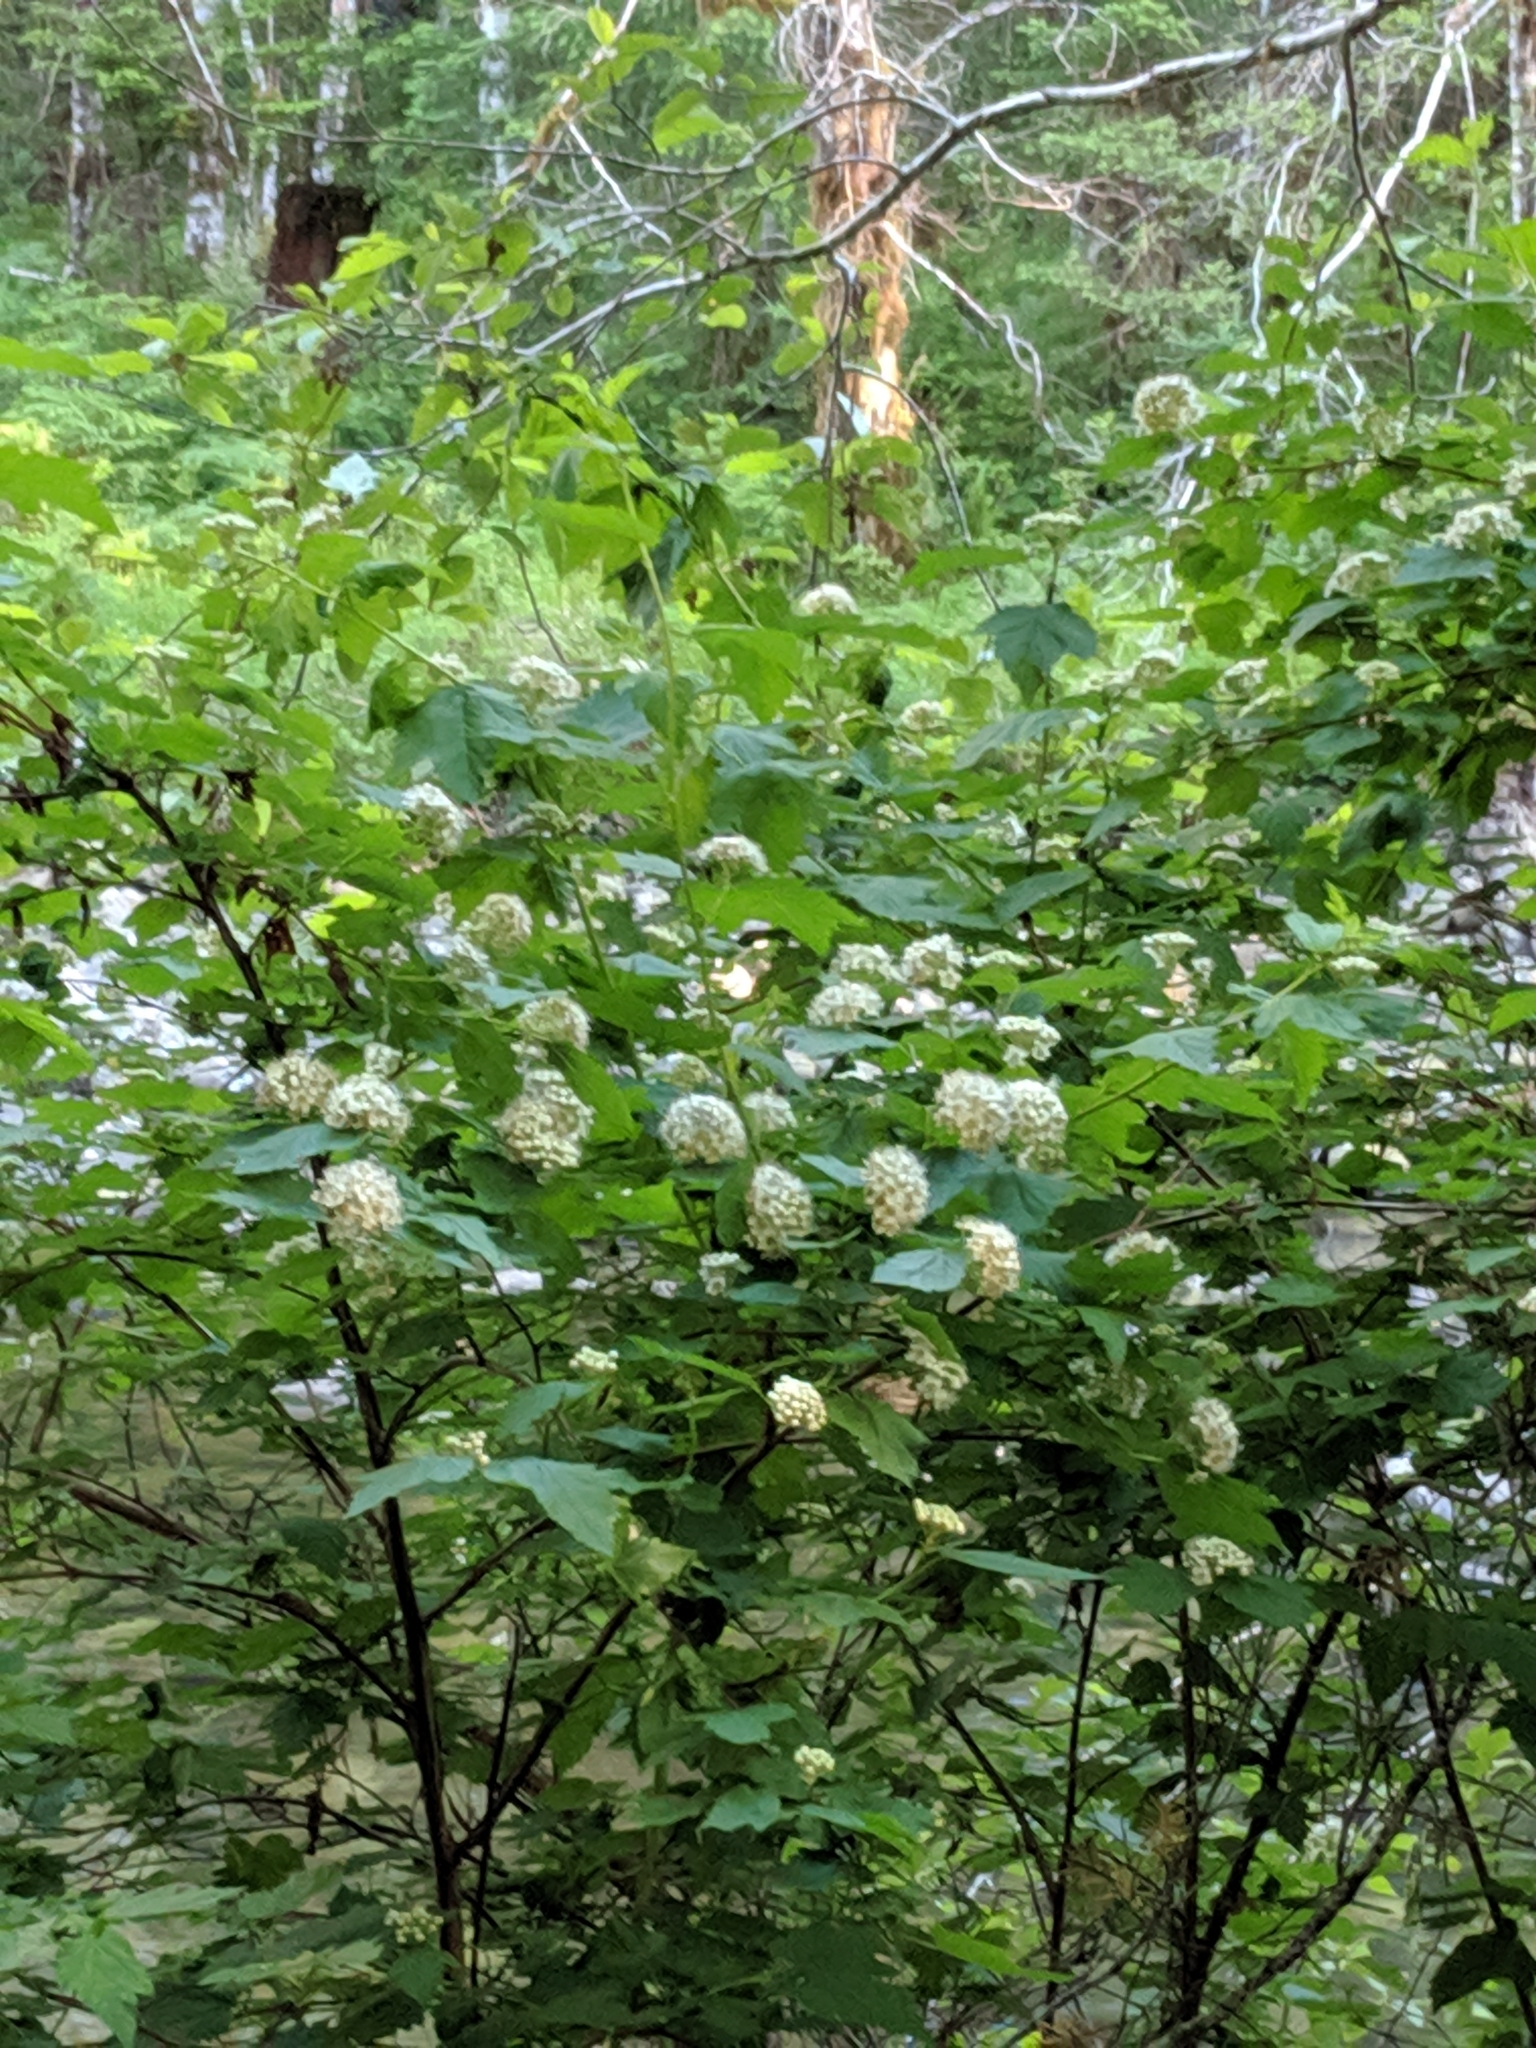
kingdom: Plantae
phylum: Tracheophyta
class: Magnoliopsida
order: Rosales
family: Rosaceae
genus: Physocarpus
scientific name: Physocarpus capitatus
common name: Pacific ninebark
